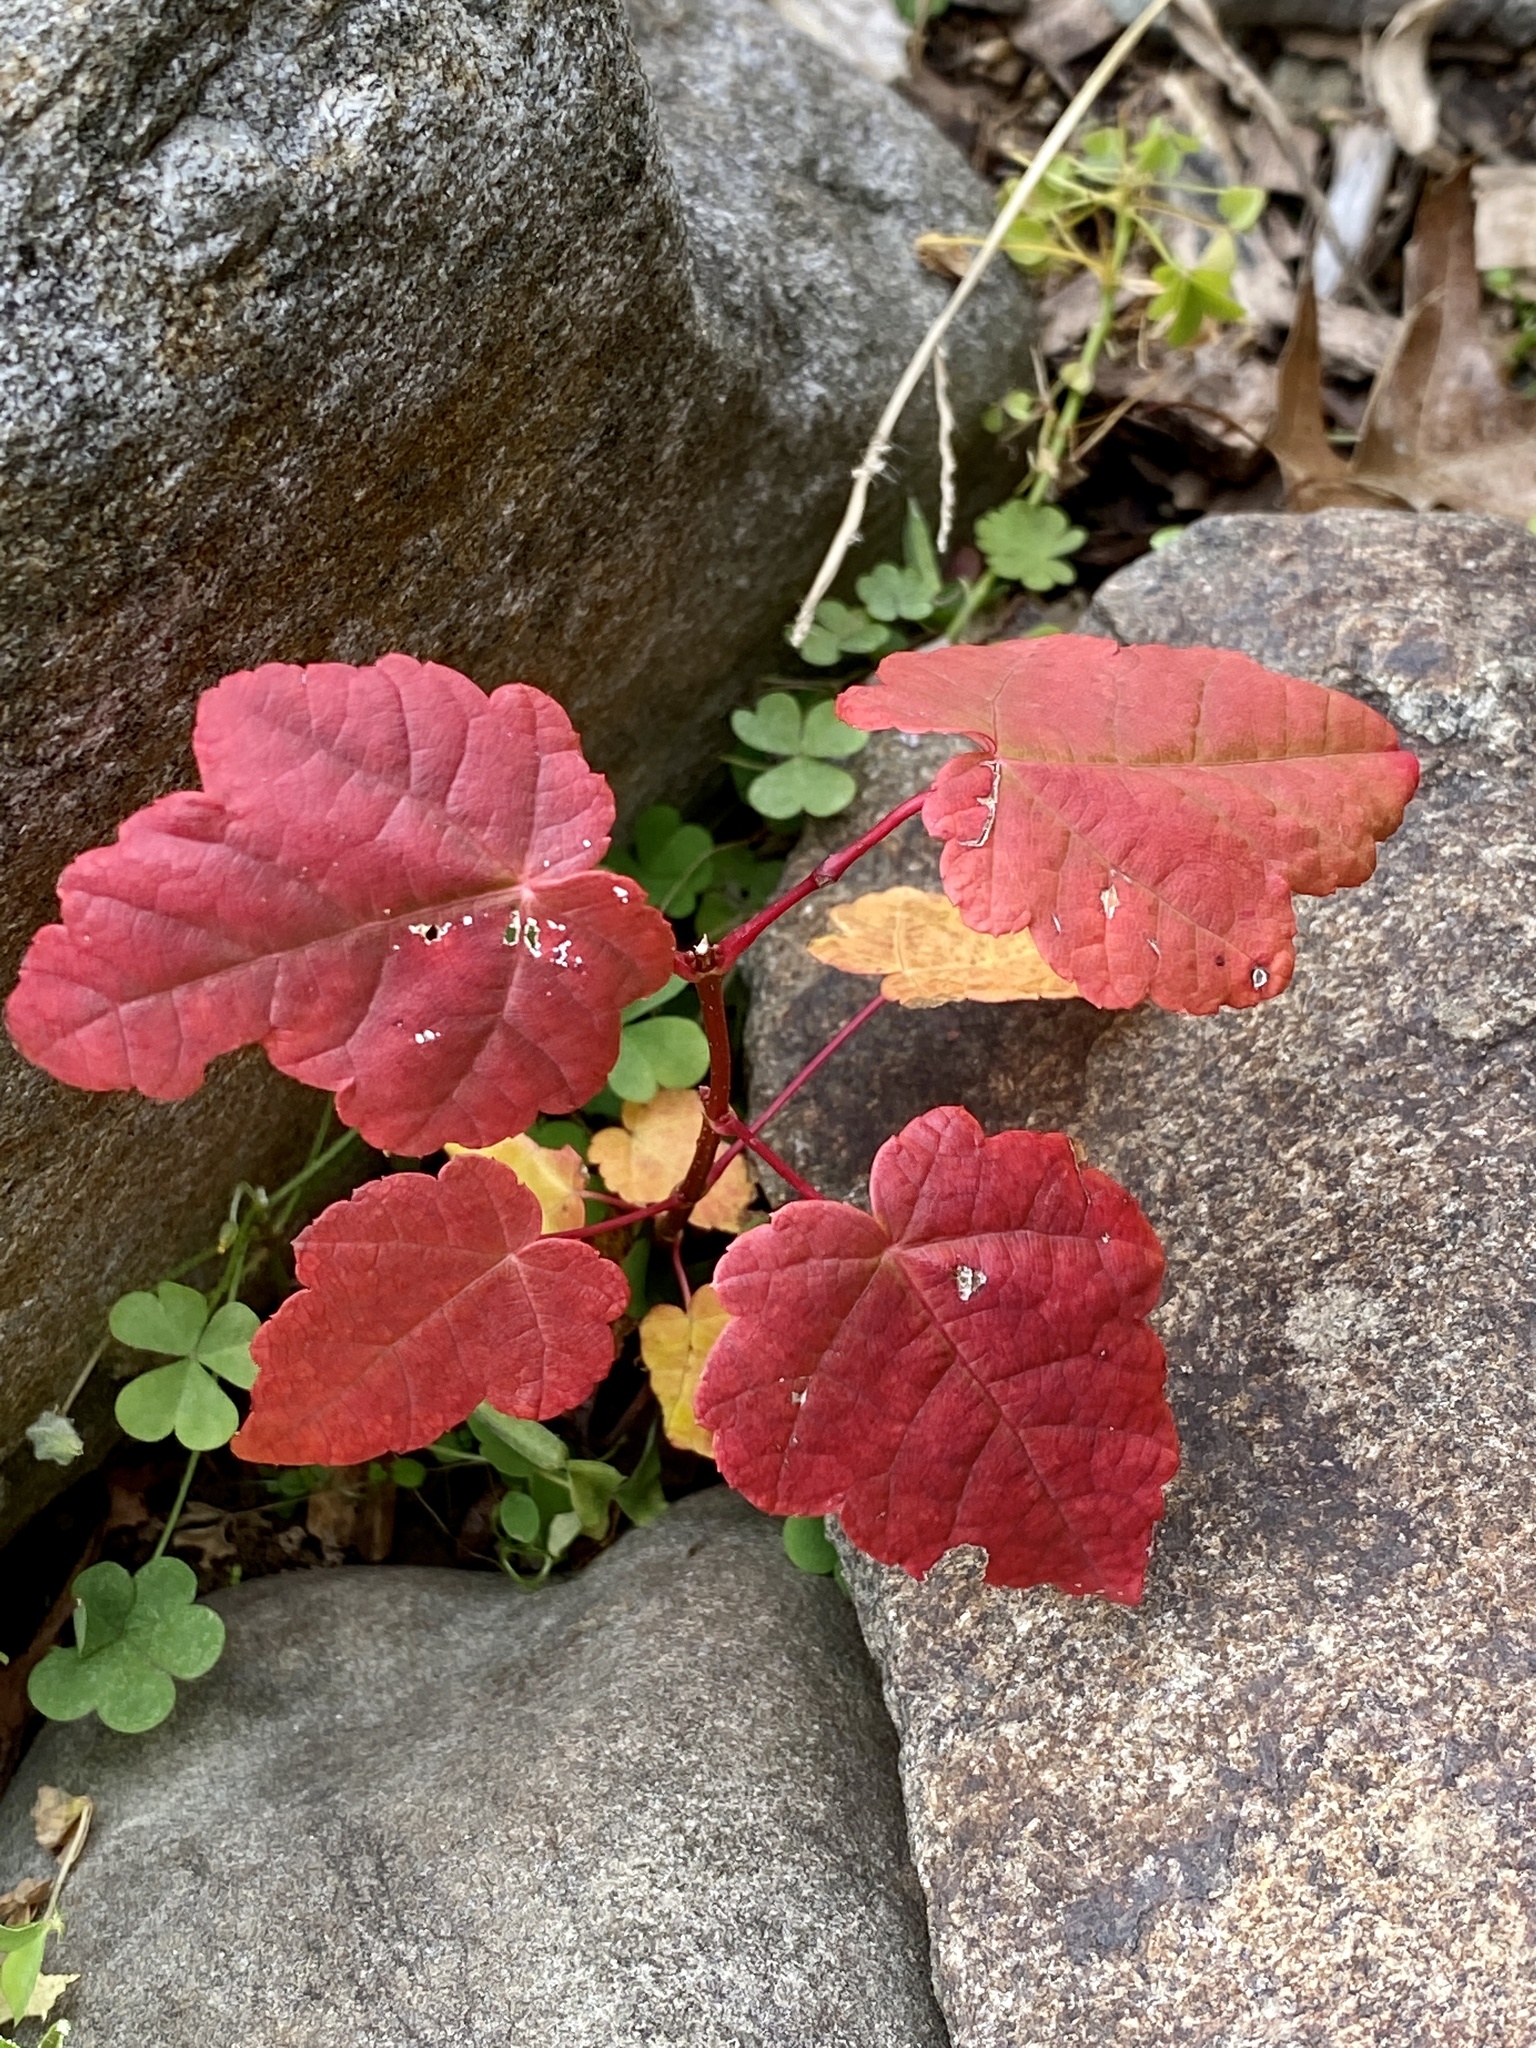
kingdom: Plantae
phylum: Tracheophyta
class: Magnoliopsida
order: Sapindales
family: Sapindaceae
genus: Acer
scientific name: Acer rubrum
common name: Red maple
